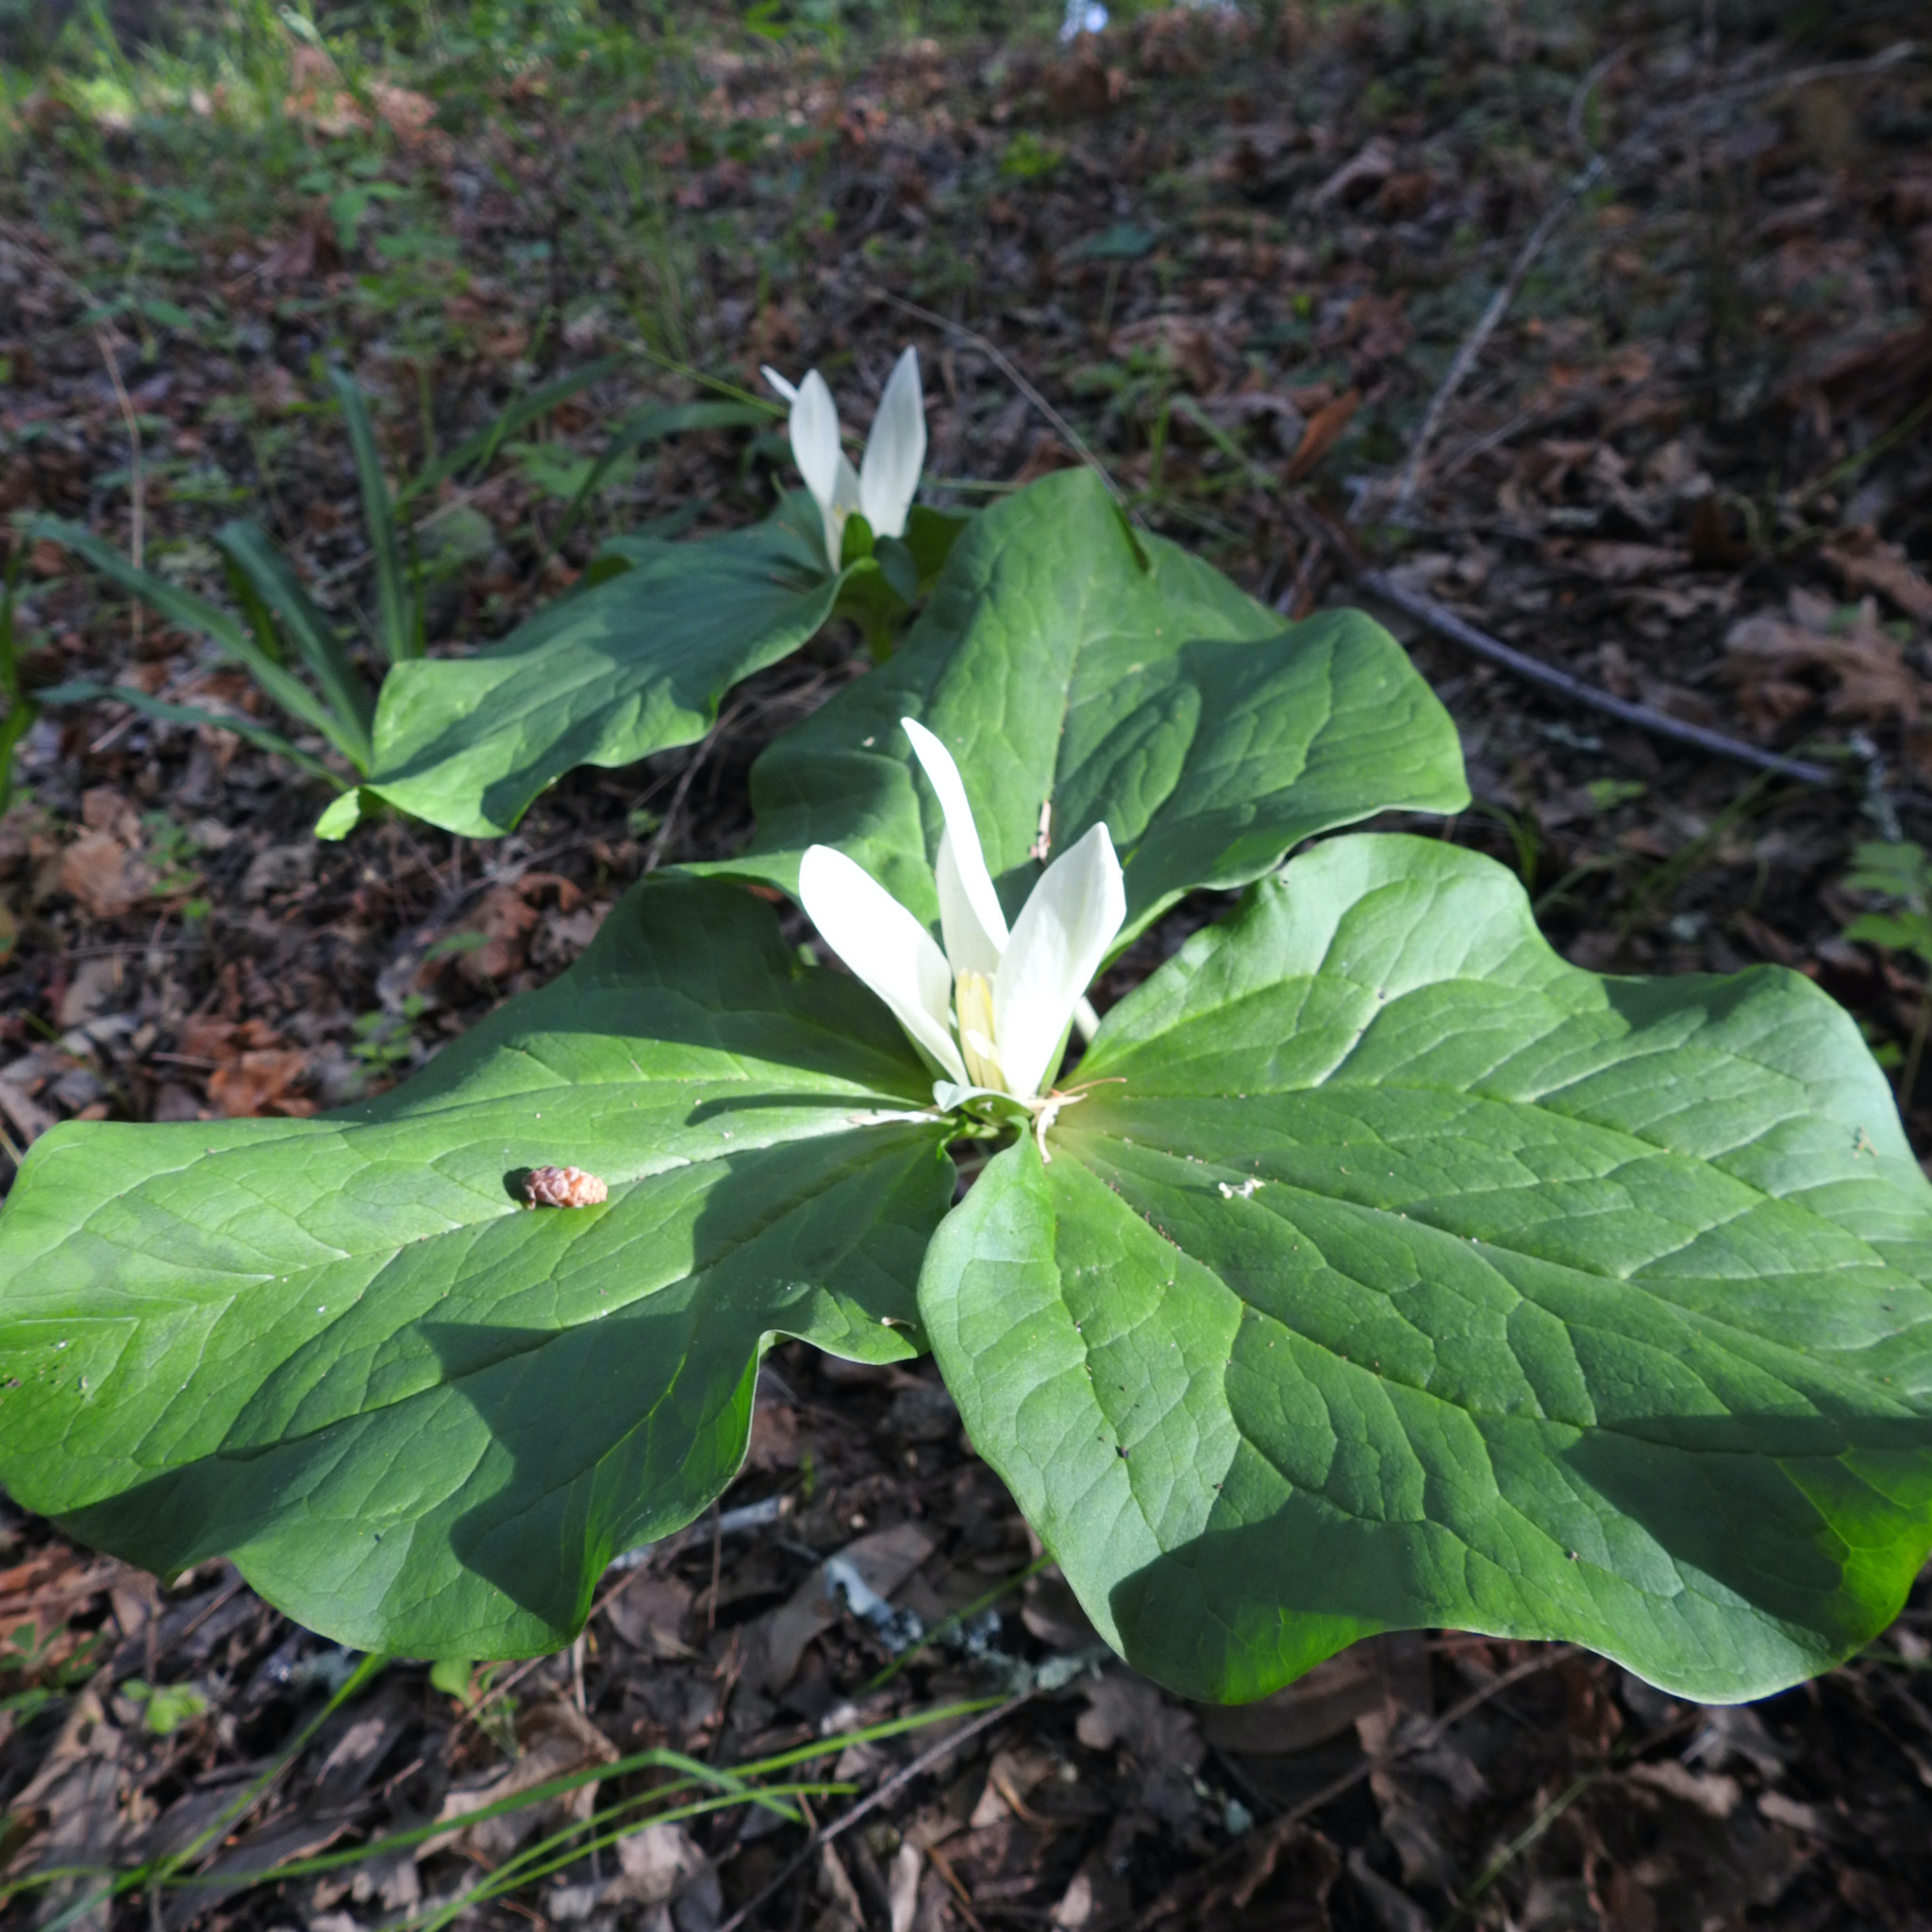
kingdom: Plantae
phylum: Tracheophyta
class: Liliopsida
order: Liliales
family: Melanthiaceae
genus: Trillium
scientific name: Trillium albidum
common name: Freeman's trillium
